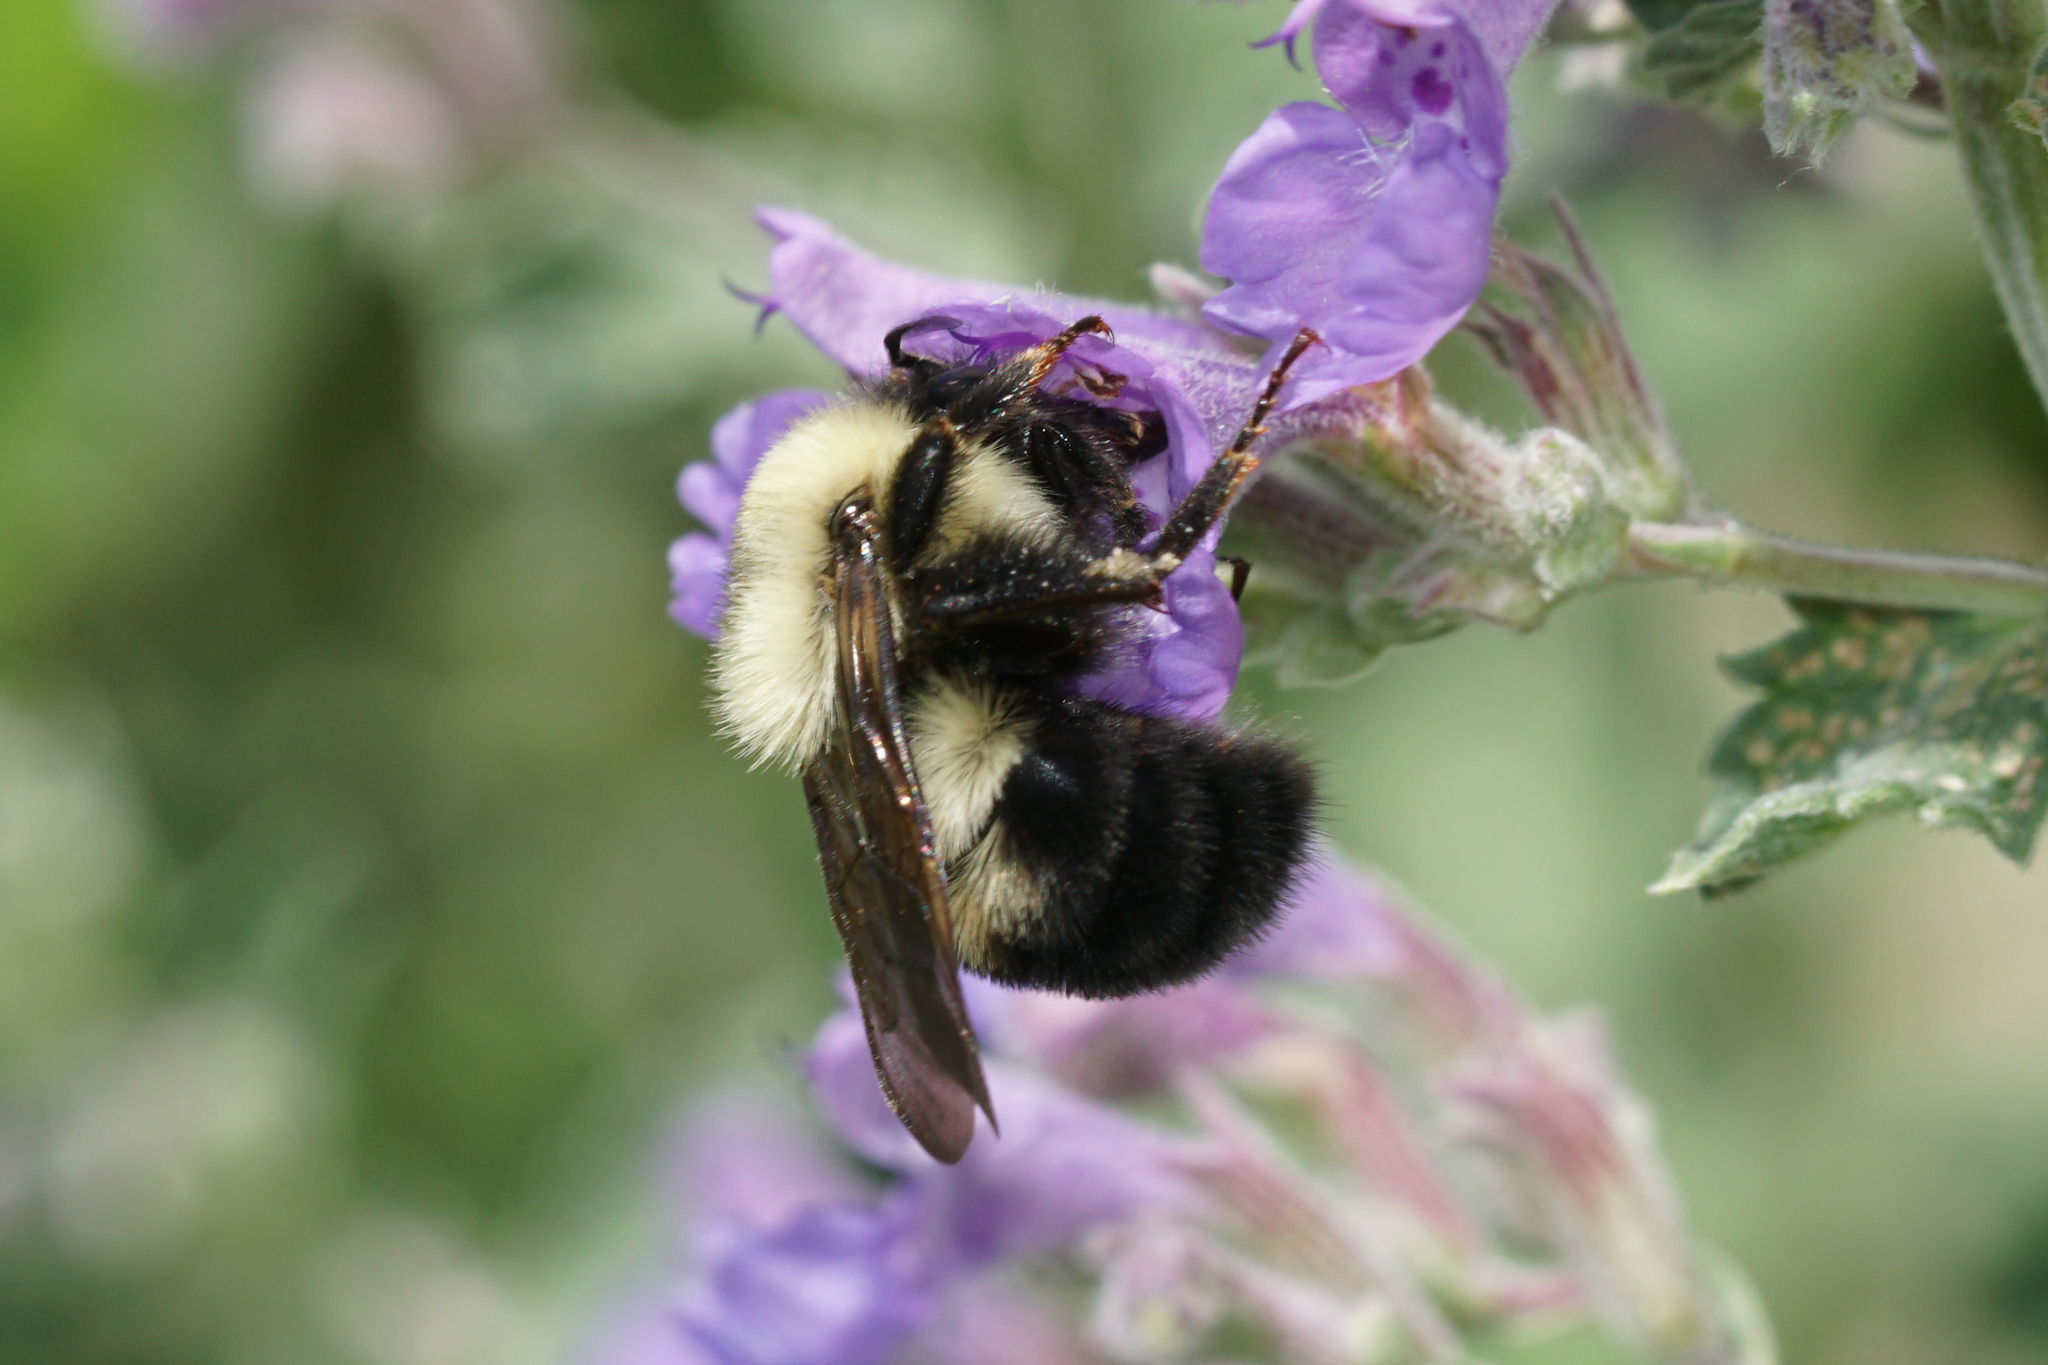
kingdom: Animalia
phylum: Arthropoda
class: Insecta
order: Hymenoptera
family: Apidae
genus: Bombus
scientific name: Bombus bimaculatus
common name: Two-spotted bumble bee
